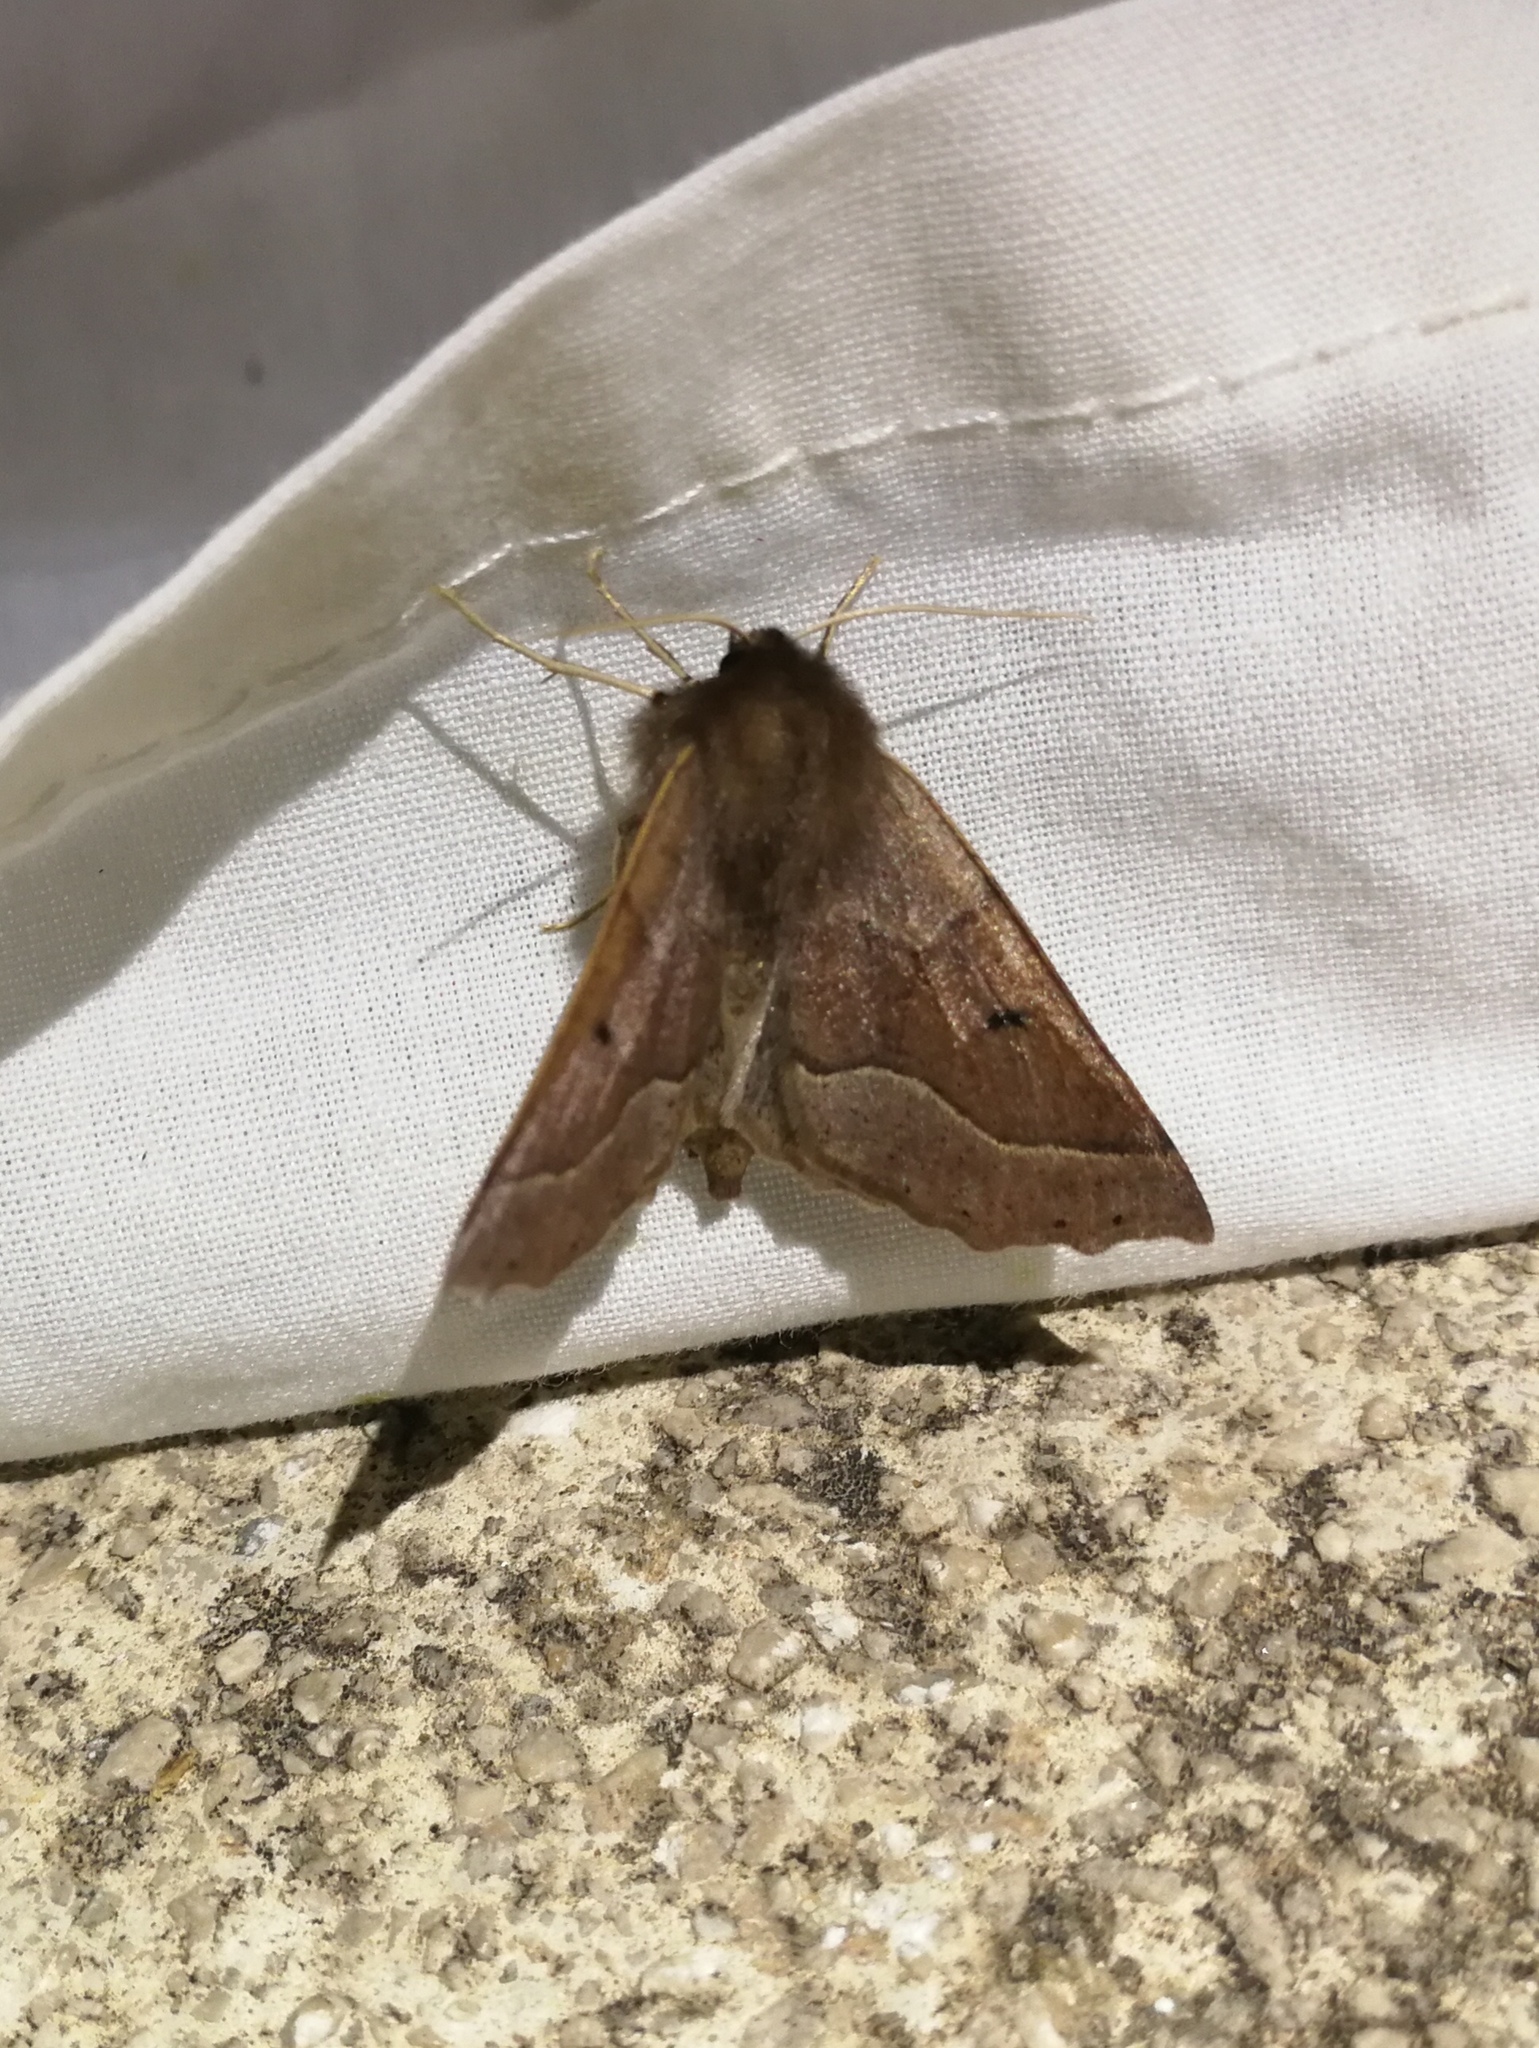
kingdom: Animalia
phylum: Arthropoda
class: Insecta
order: Lepidoptera
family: Geometridae
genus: Crocallis
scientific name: Crocallis tusciaria
